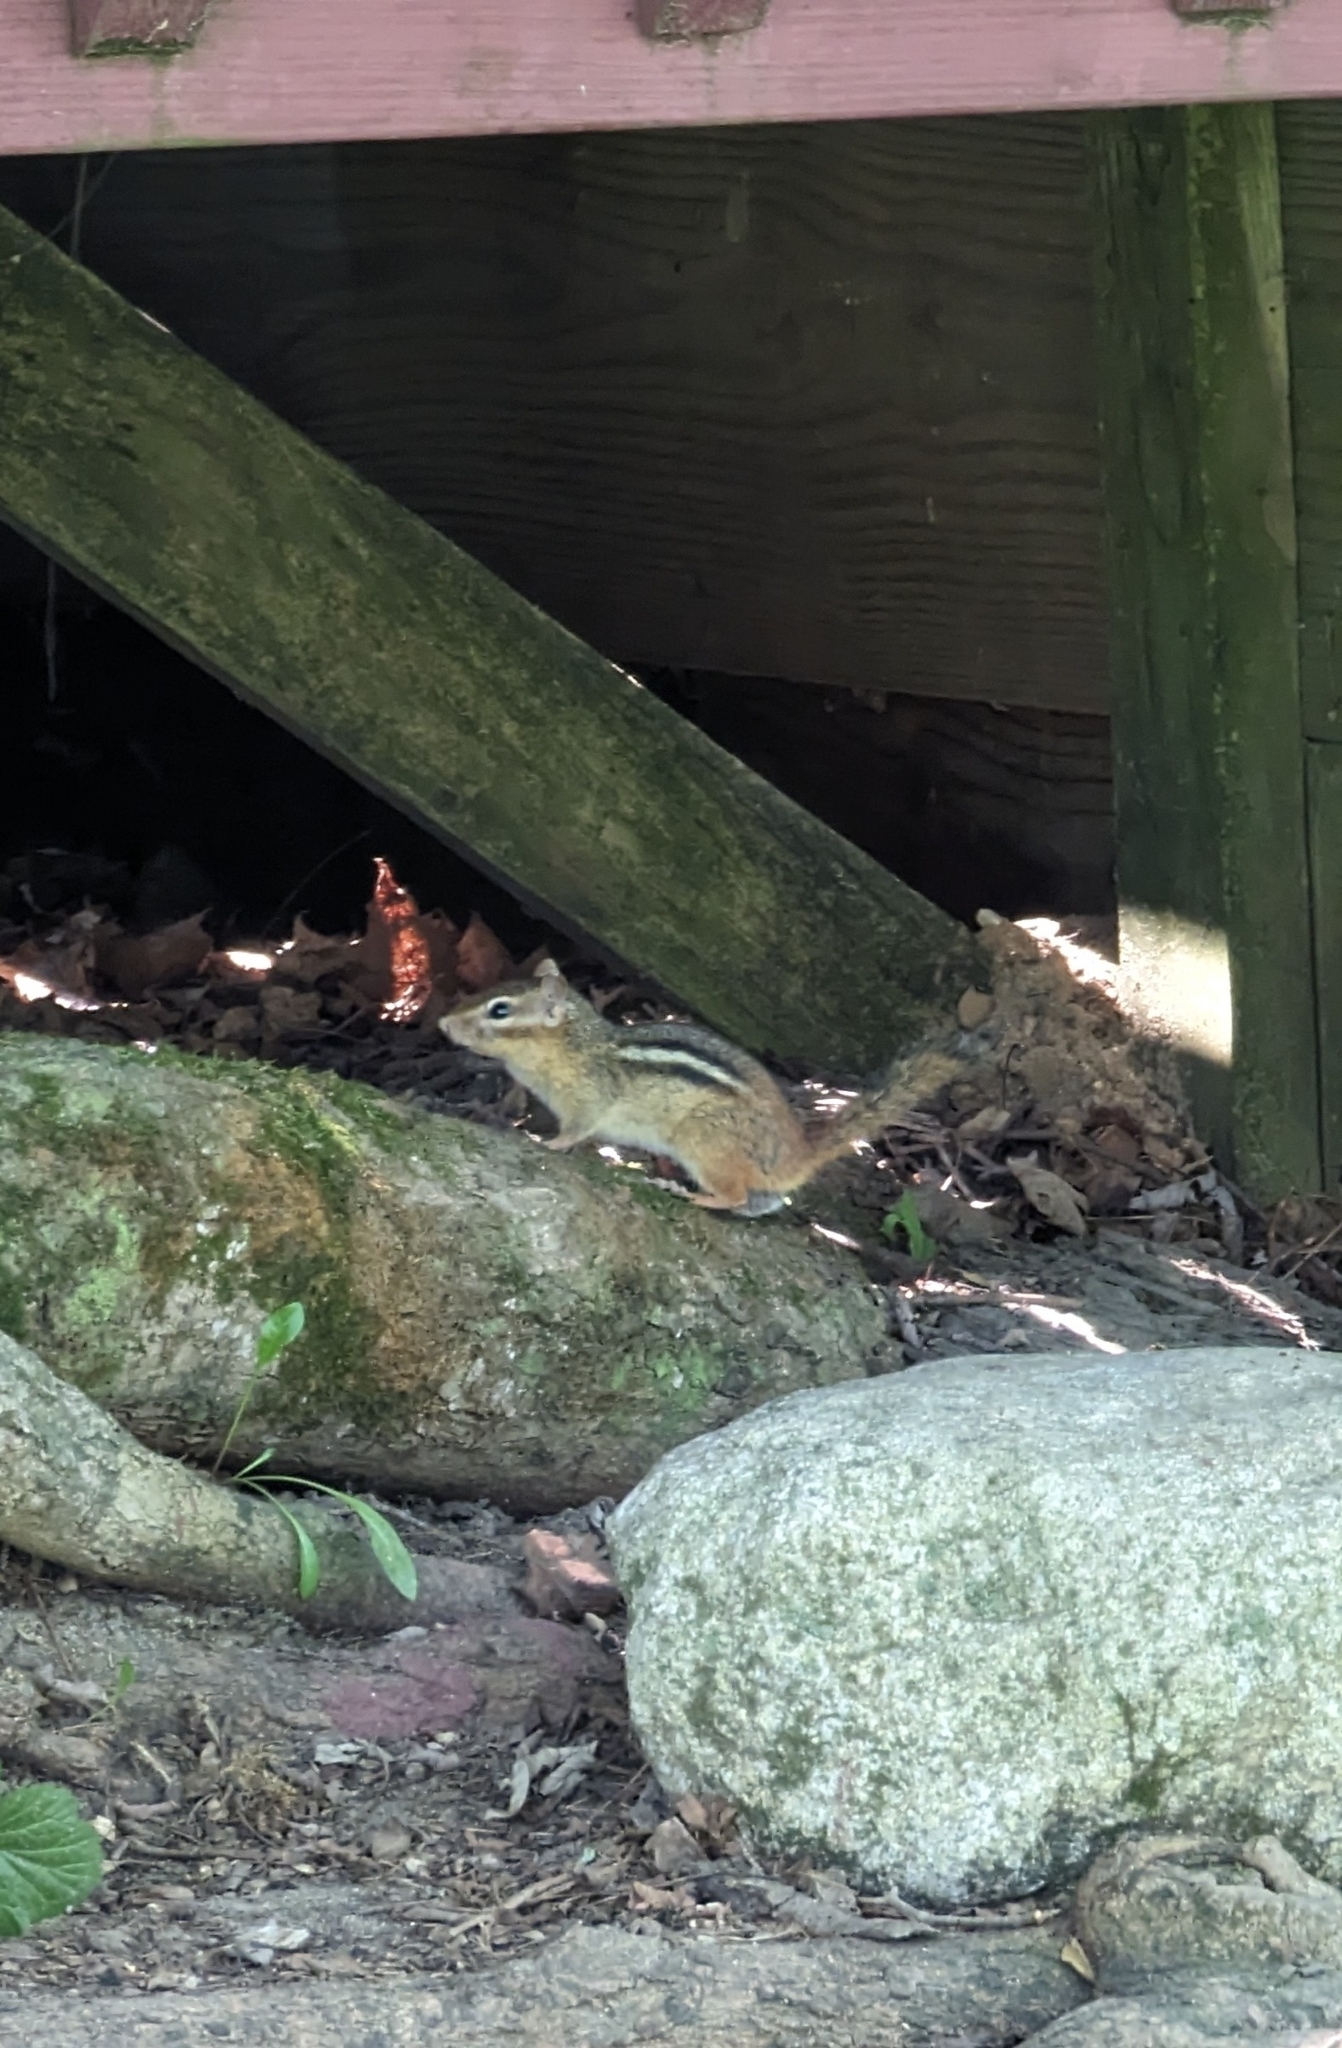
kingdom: Animalia
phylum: Chordata
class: Mammalia
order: Rodentia
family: Sciuridae
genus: Tamias
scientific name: Tamias striatus
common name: Eastern chipmunk
